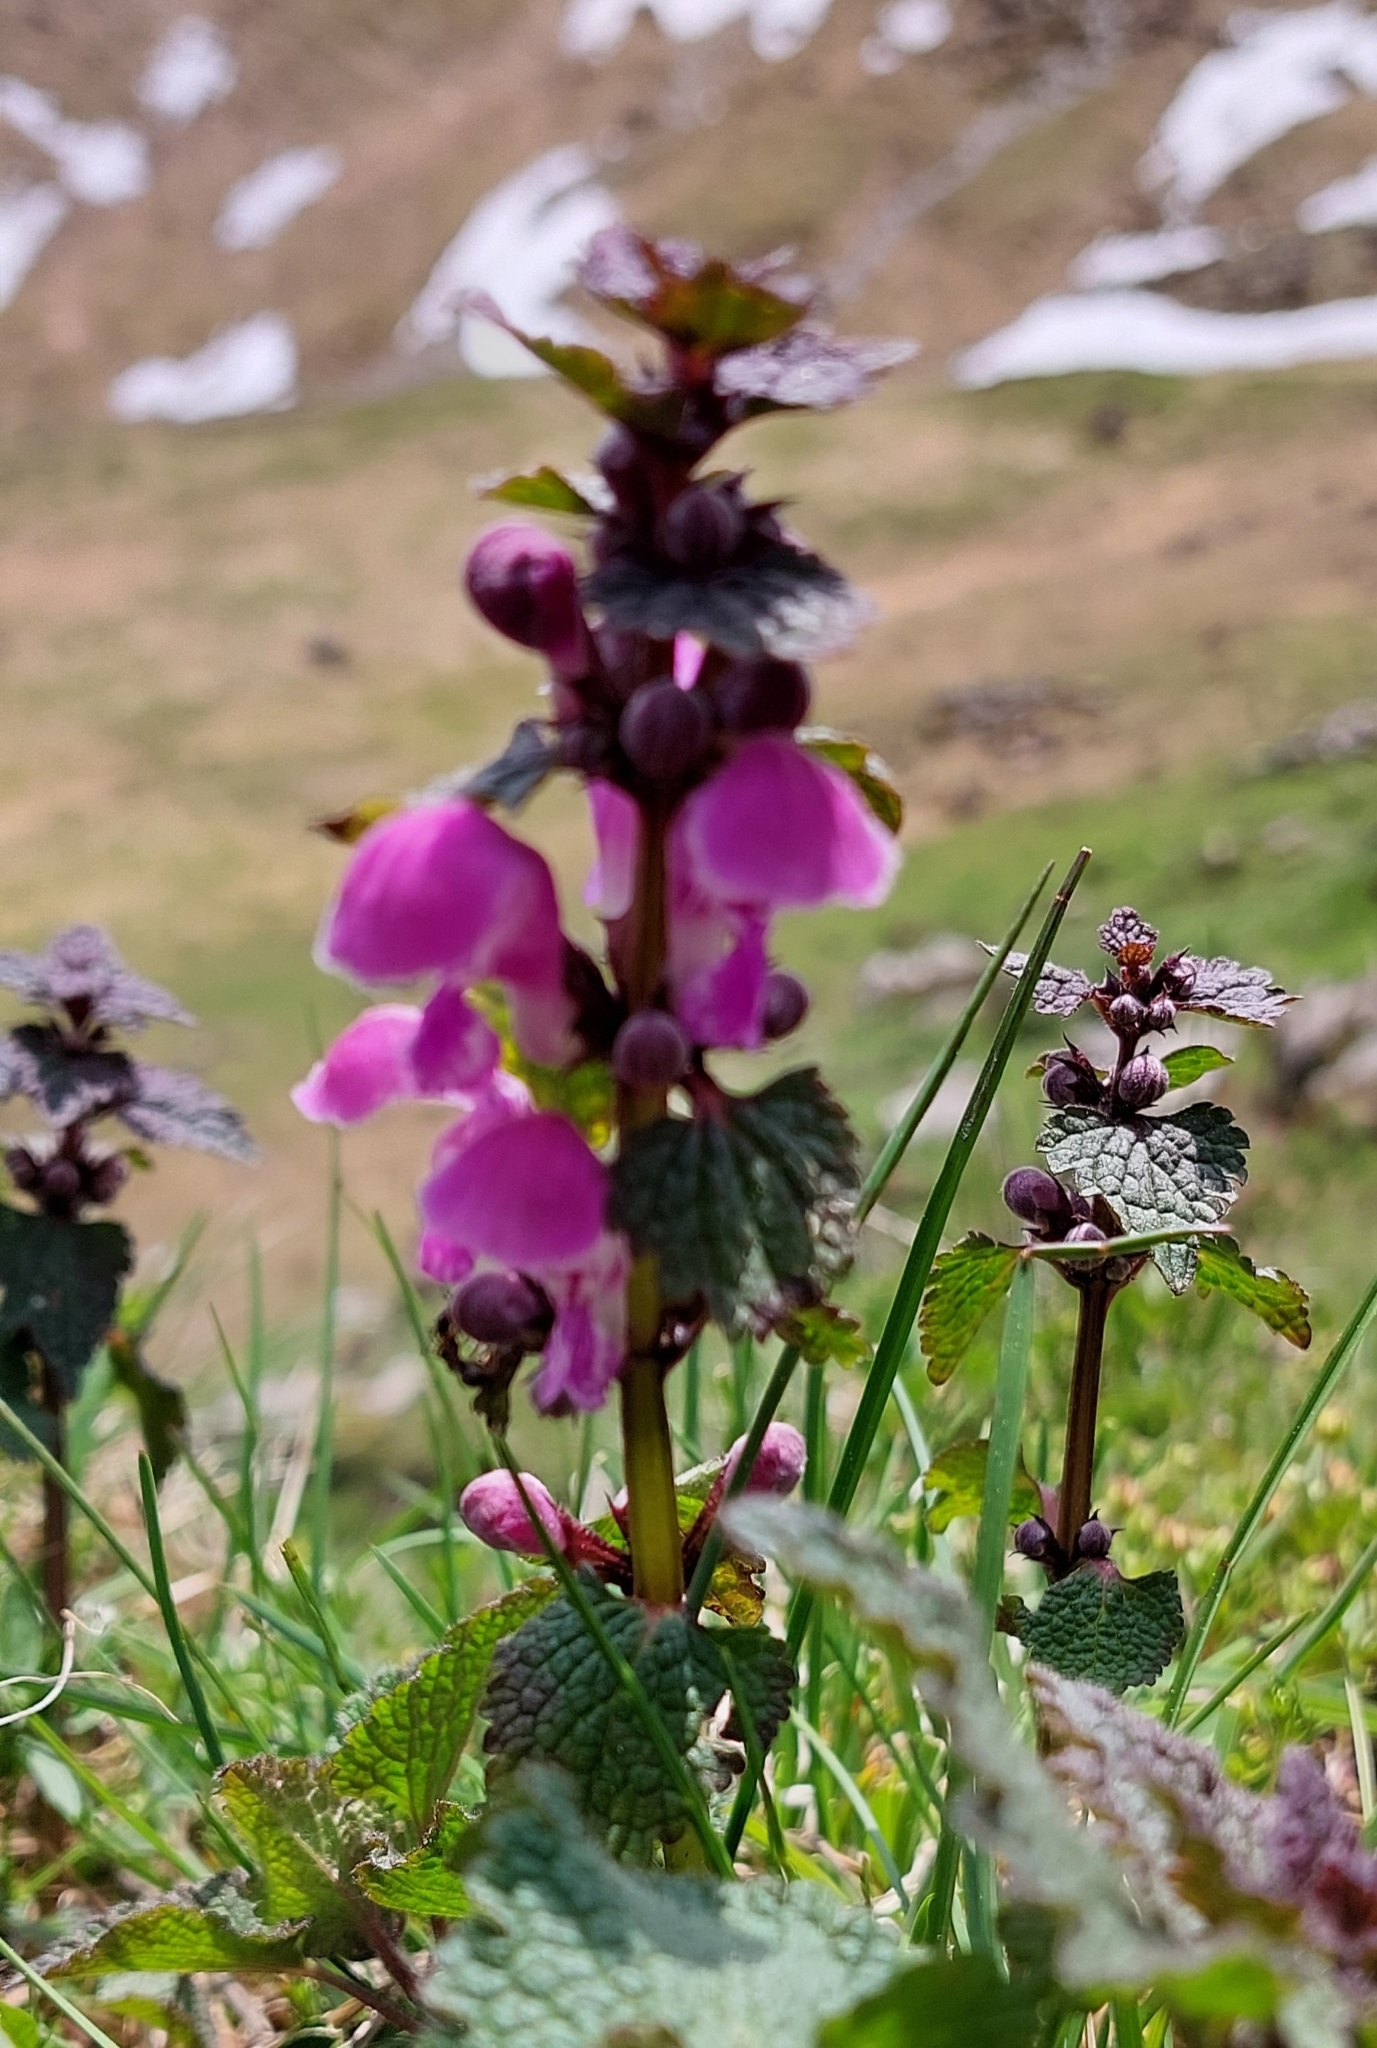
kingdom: Plantae
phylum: Tracheophyta
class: Magnoliopsida
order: Lamiales
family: Lamiaceae
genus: Lamium
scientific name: Lamium maculatum
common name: Spotted dead-nettle
